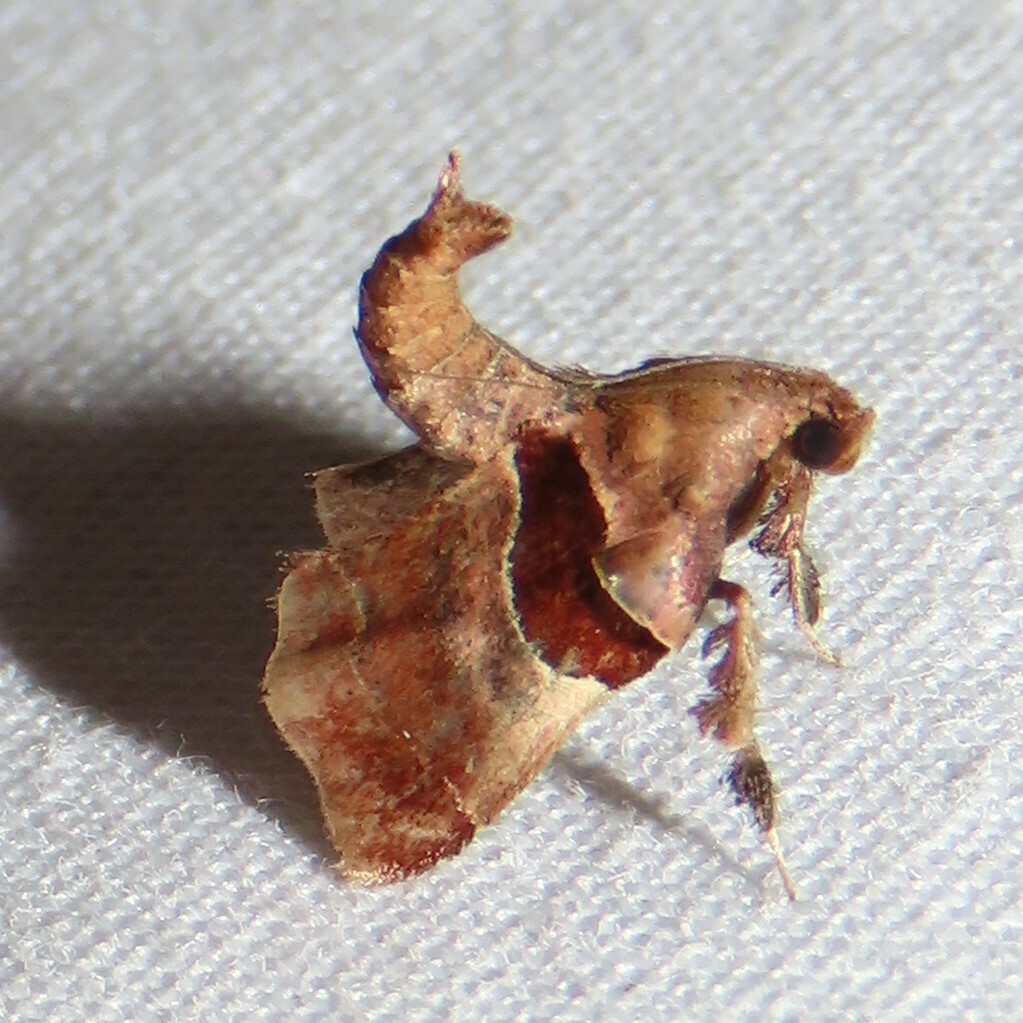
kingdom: Animalia
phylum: Arthropoda
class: Insecta
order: Lepidoptera
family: Pyralidae
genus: Tosale
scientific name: Tosale oviplagalis
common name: Dimorphic tosale moth
